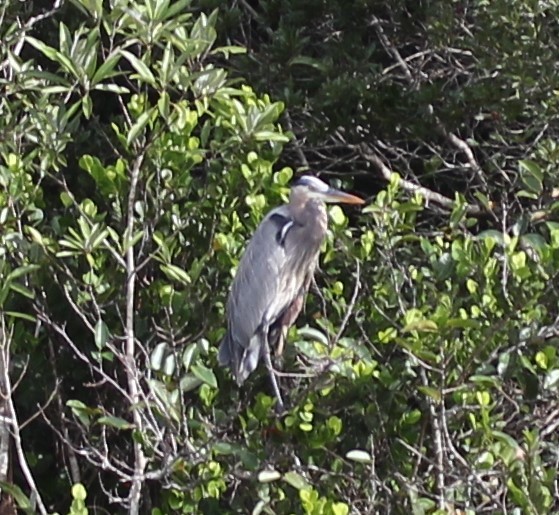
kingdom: Animalia
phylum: Chordata
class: Aves
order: Pelecaniformes
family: Ardeidae
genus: Ardea
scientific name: Ardea herodias
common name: Great blue heron
